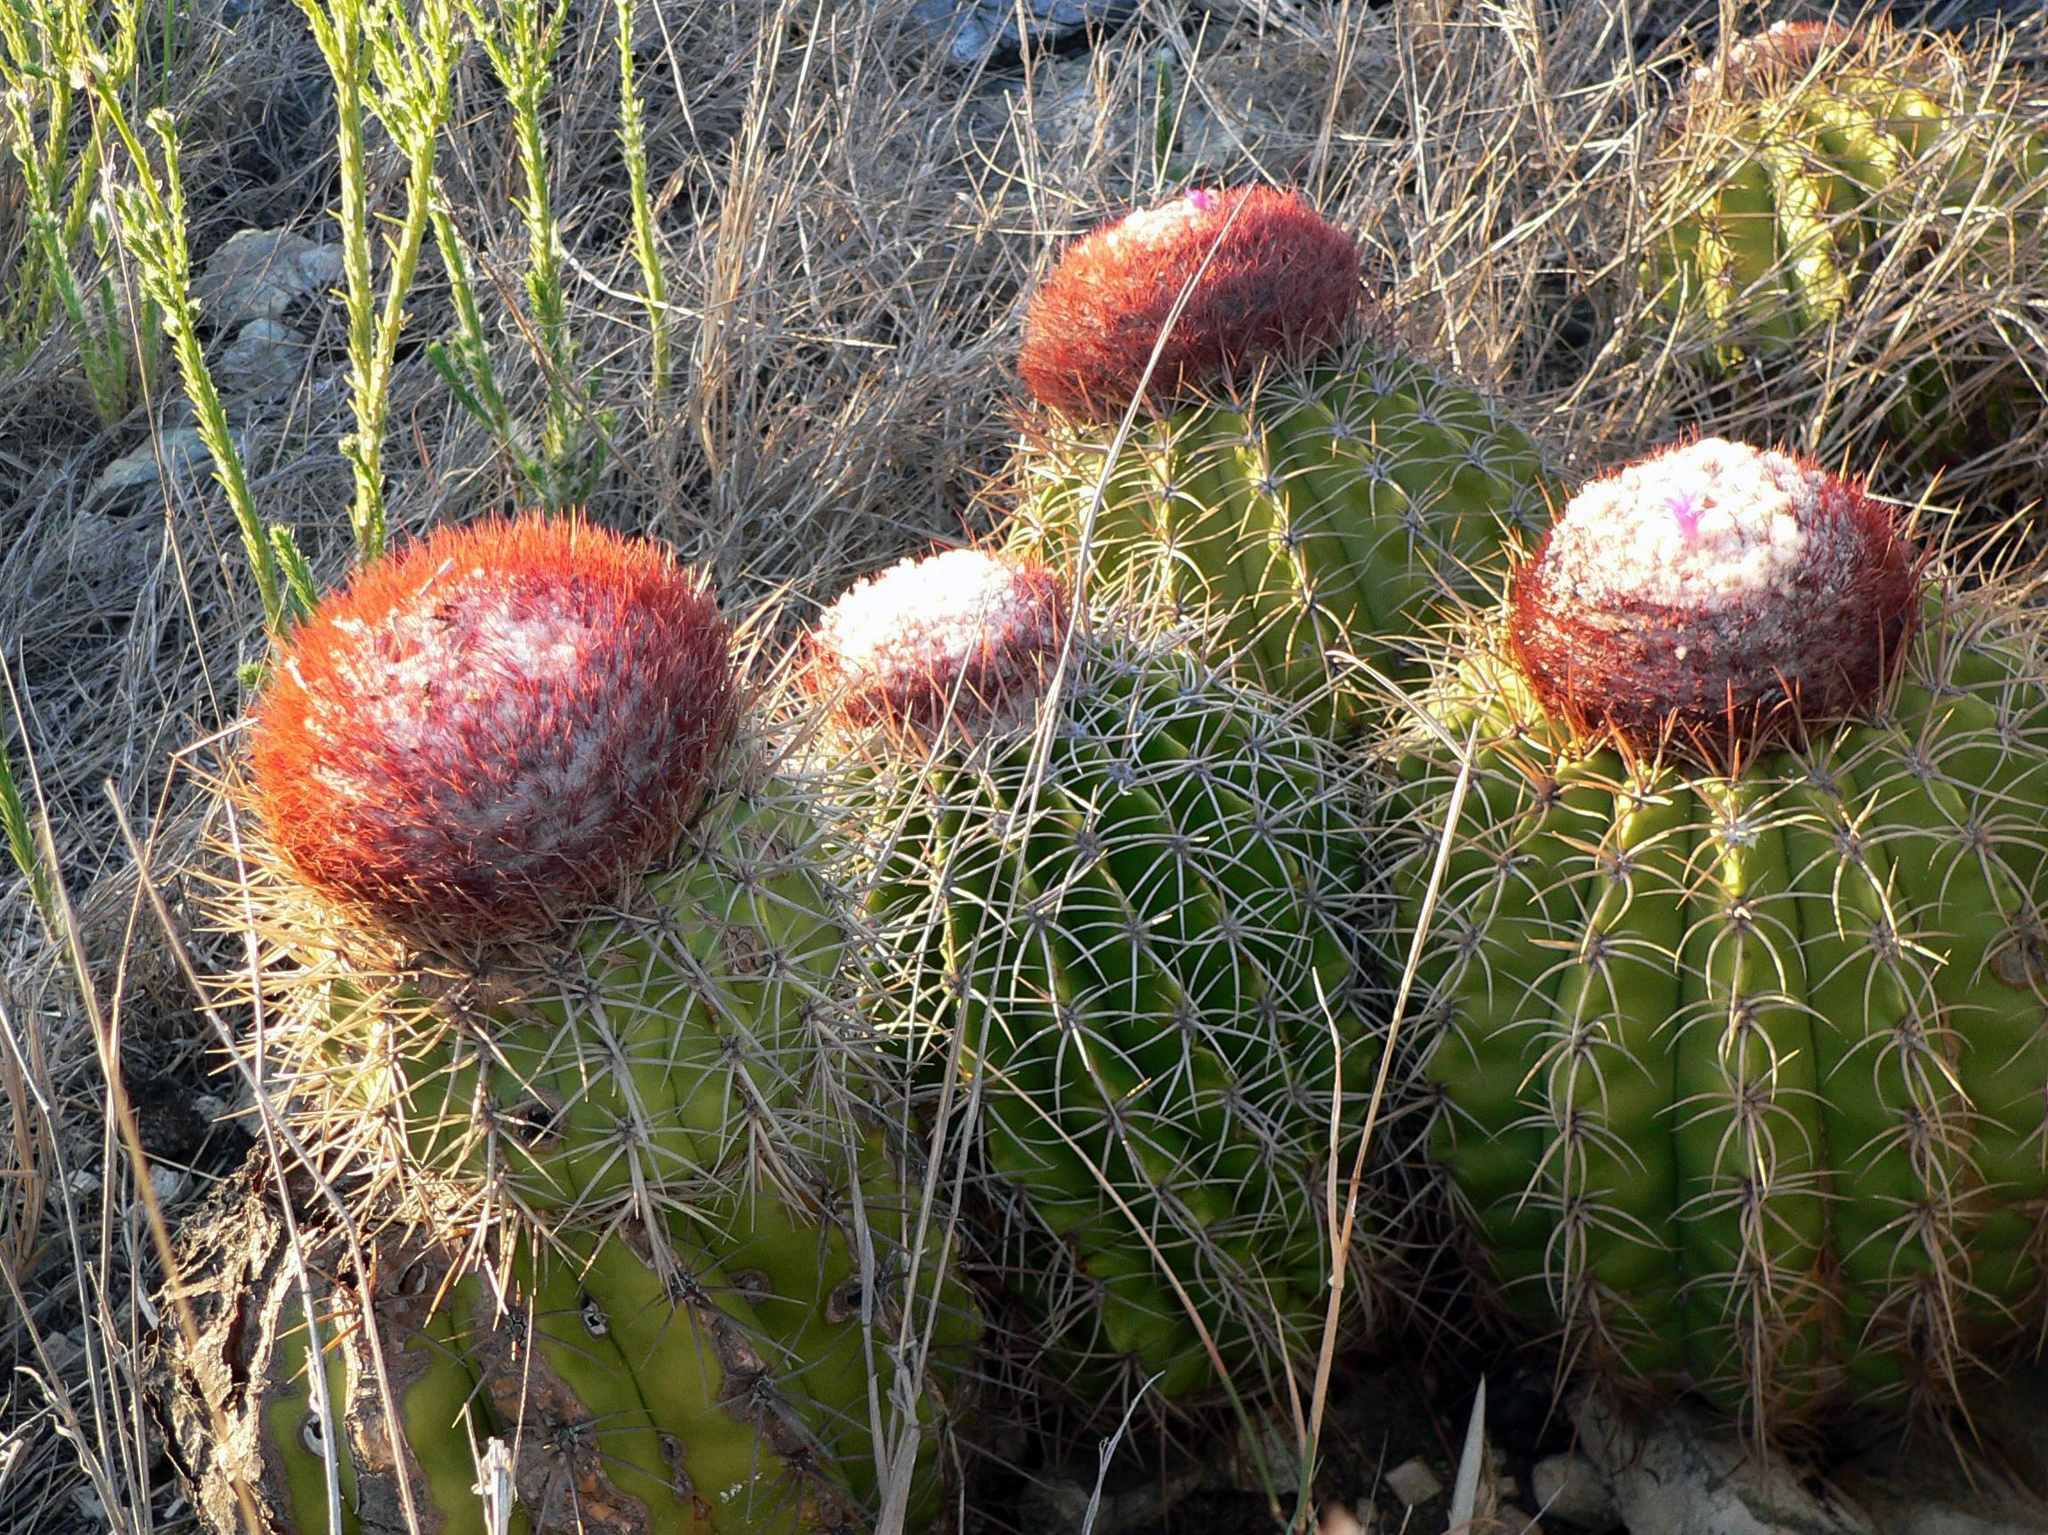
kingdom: Plantae
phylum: Tracheophyta
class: Magnoliopsida
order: Caryophyllales
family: Cactaceae
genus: Melocactus
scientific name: Melocactus curvispinus
